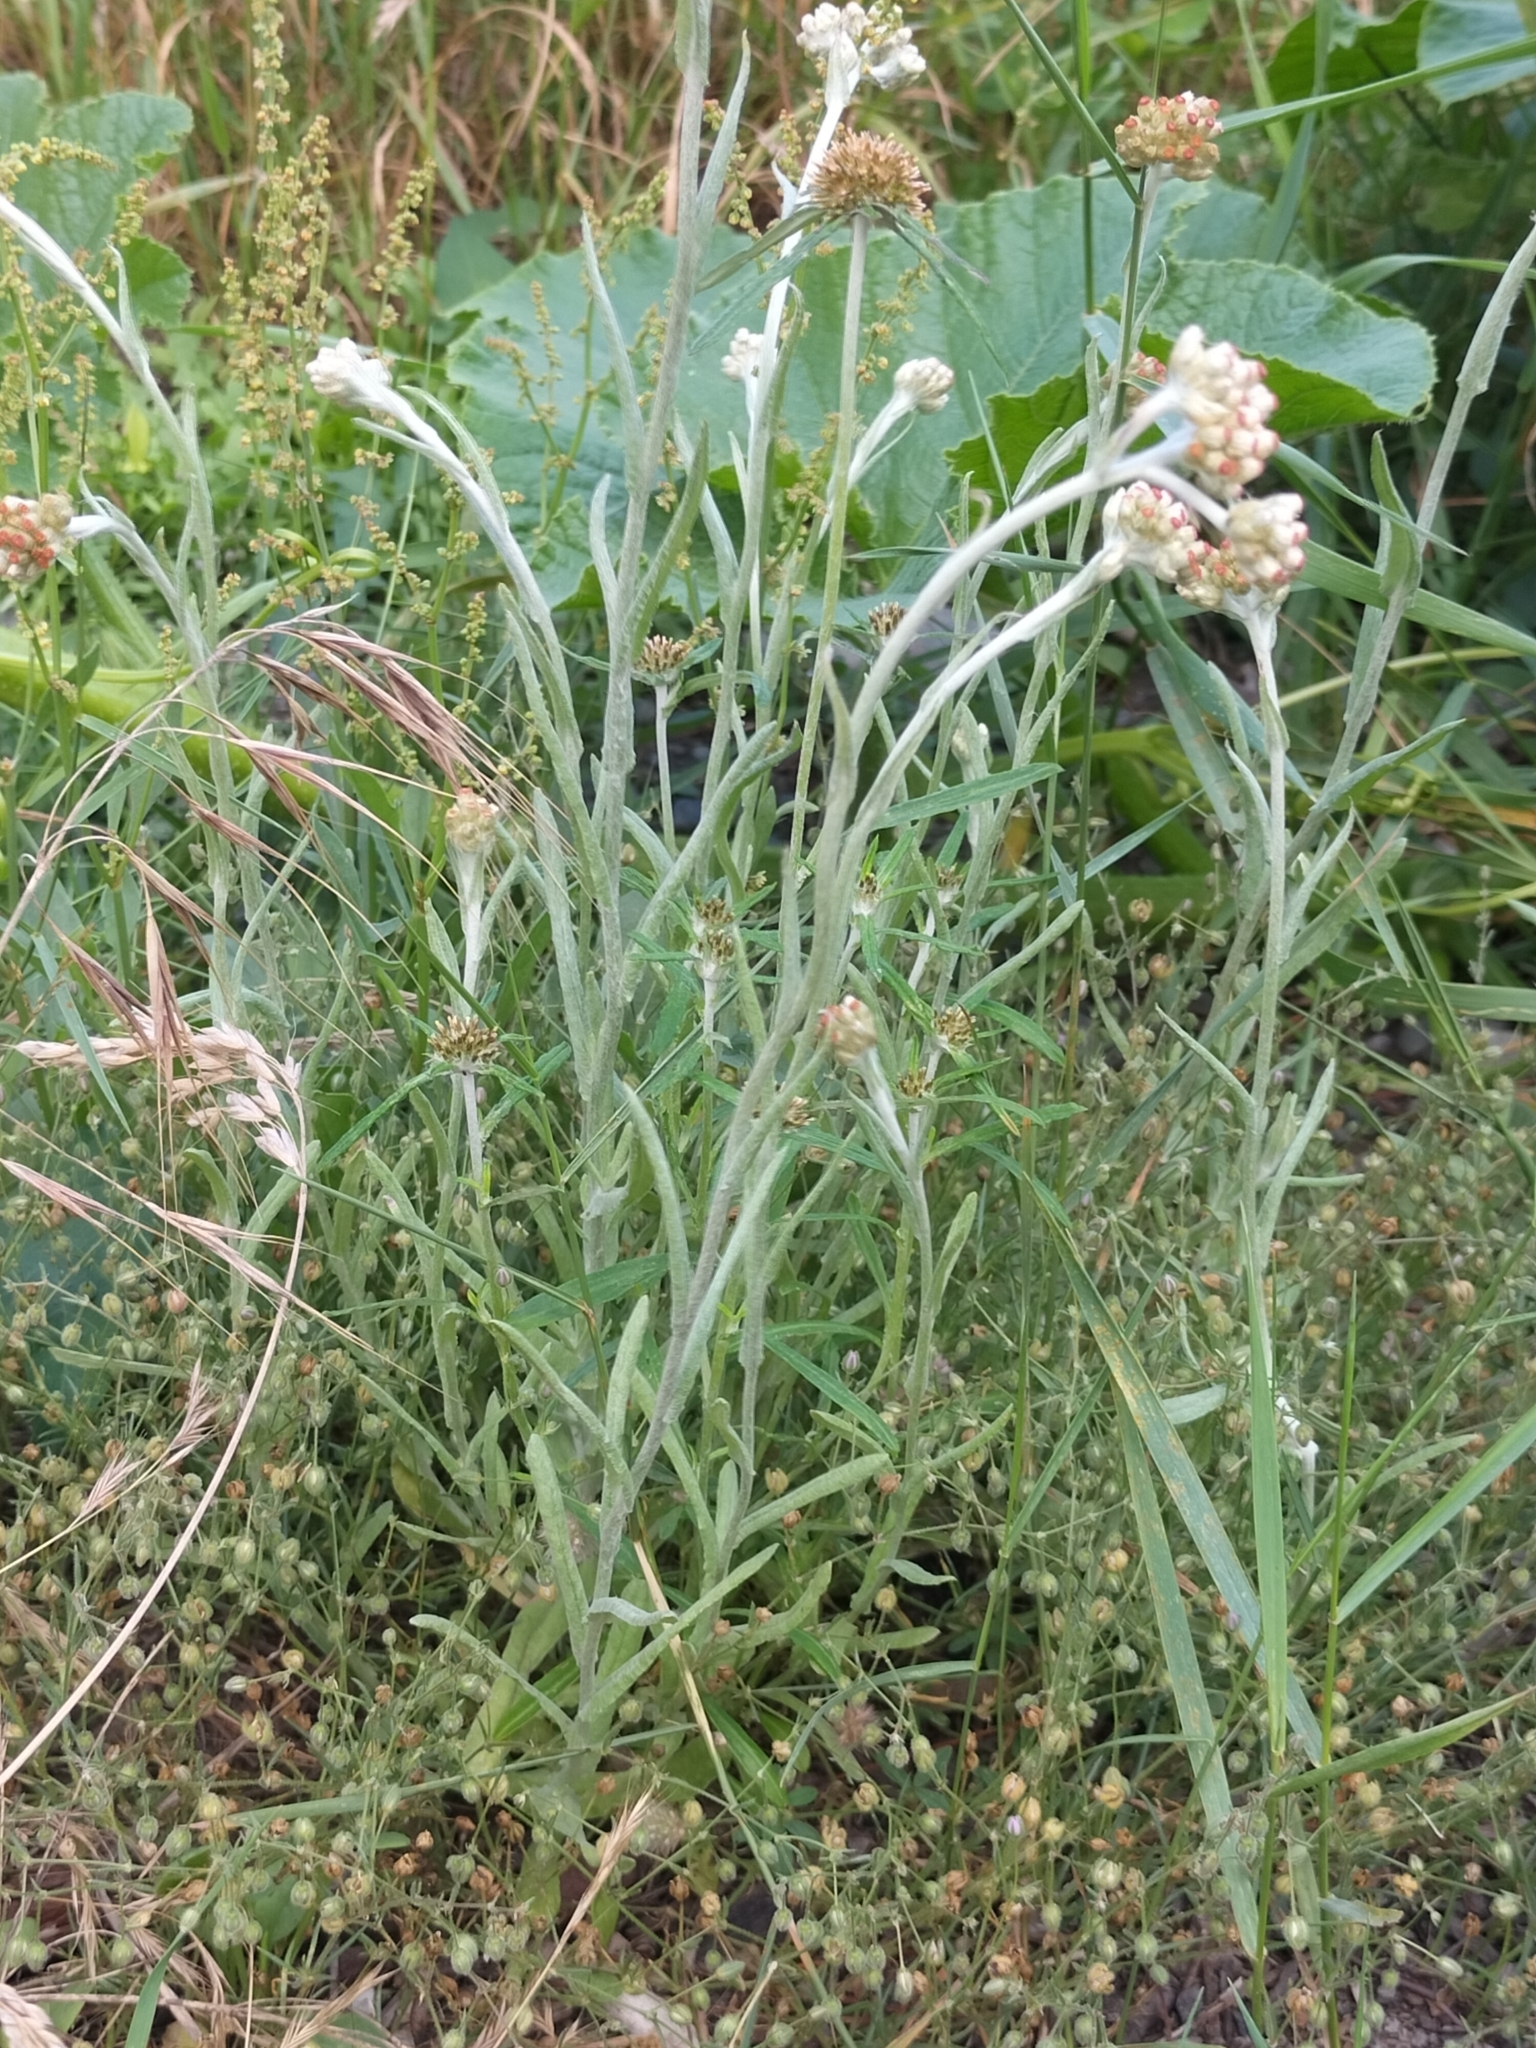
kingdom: Plantae
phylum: Tracheophyta
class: Magnoliopsida
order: Asterales
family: Asteraceae
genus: Helichrysum
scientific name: Helichrysum luteoalbum
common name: Daisy
